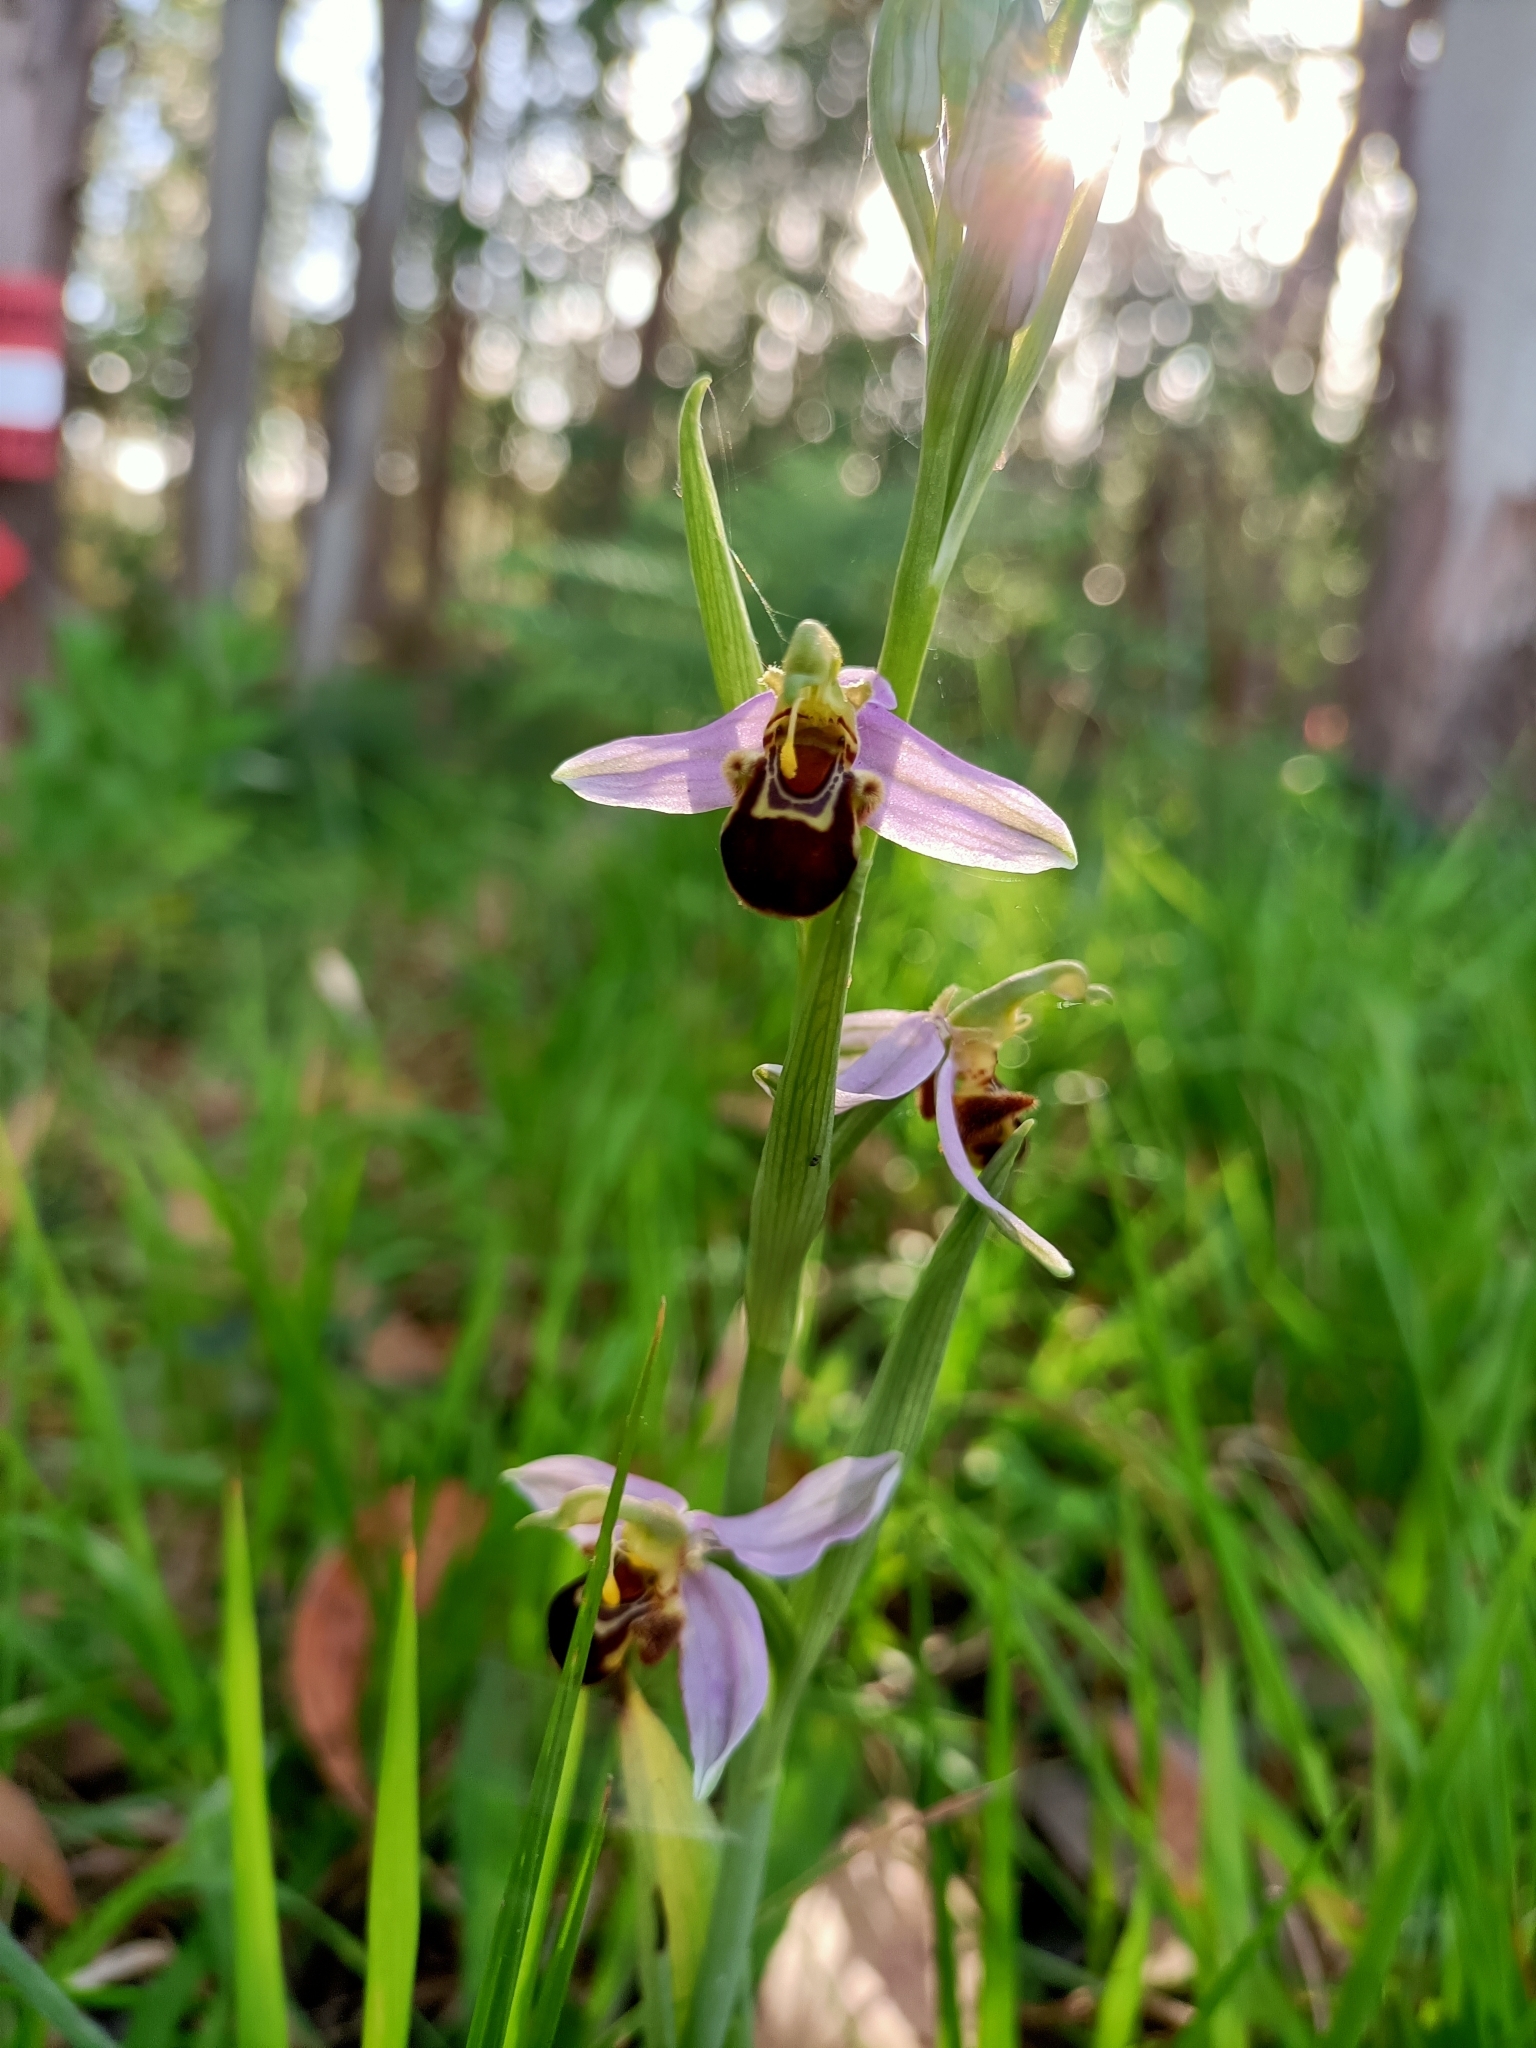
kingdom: Plantae
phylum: Tracheophyta
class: Liliopsida
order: Asparagales
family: Orchidaceae
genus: Ophrys
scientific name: Ophrys apifera
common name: Bee orchid
